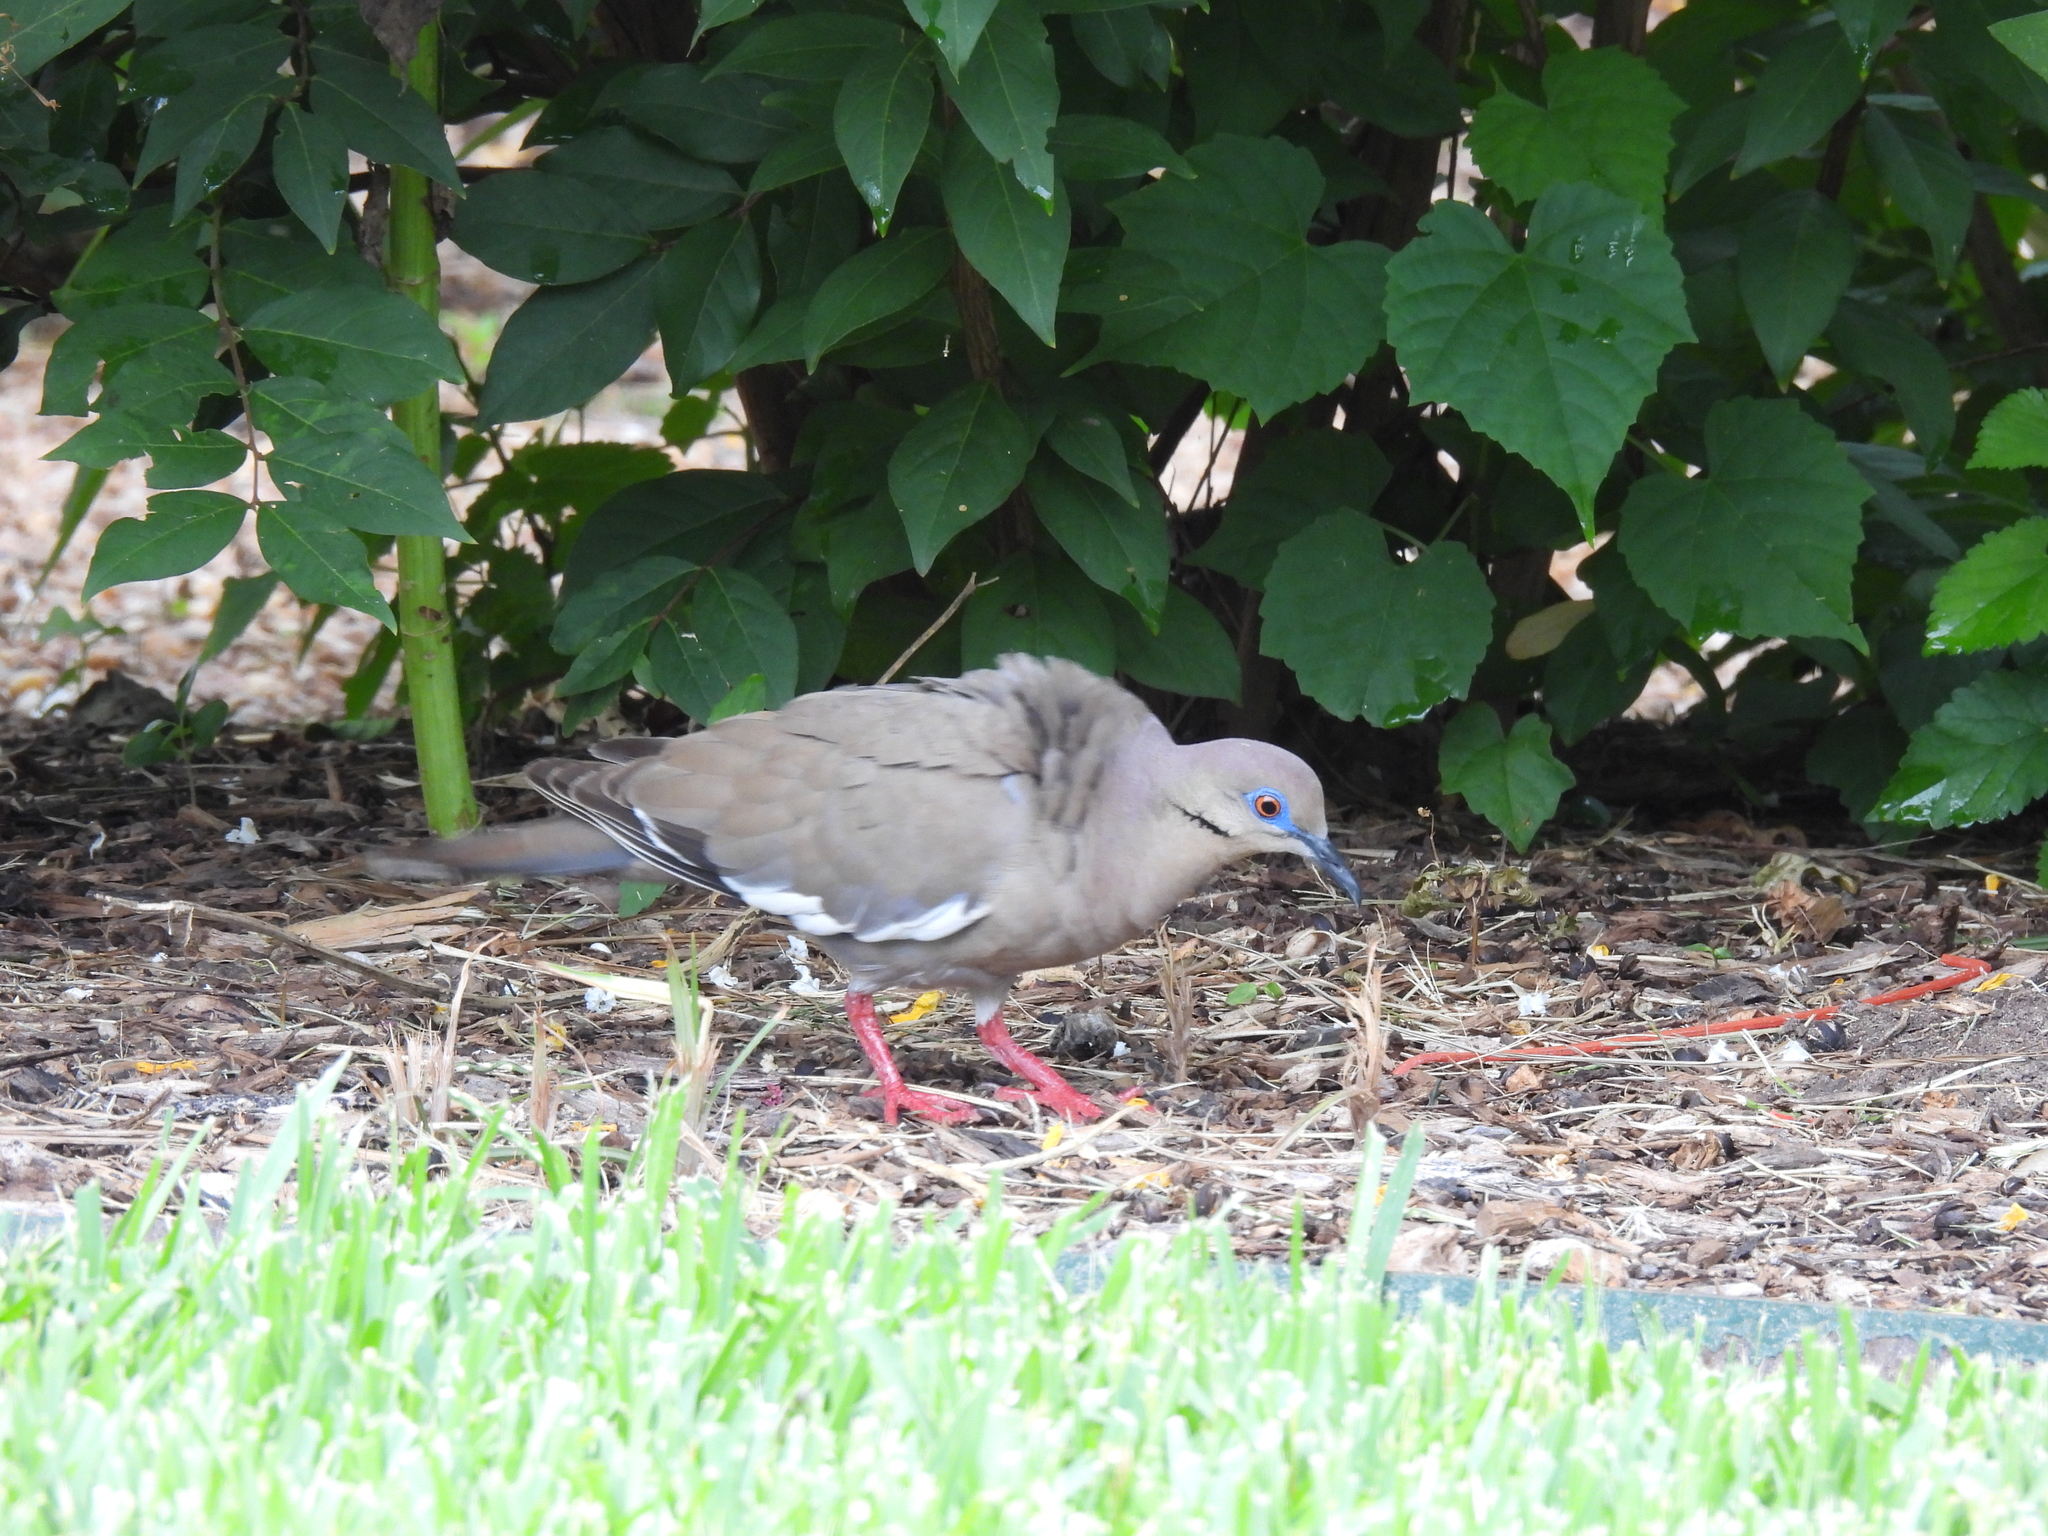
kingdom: Animalia
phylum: Chordata
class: Aves
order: Columbiformes
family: Columbidae
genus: Zenaida
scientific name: Zenaida asiatica
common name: White-winged dove
